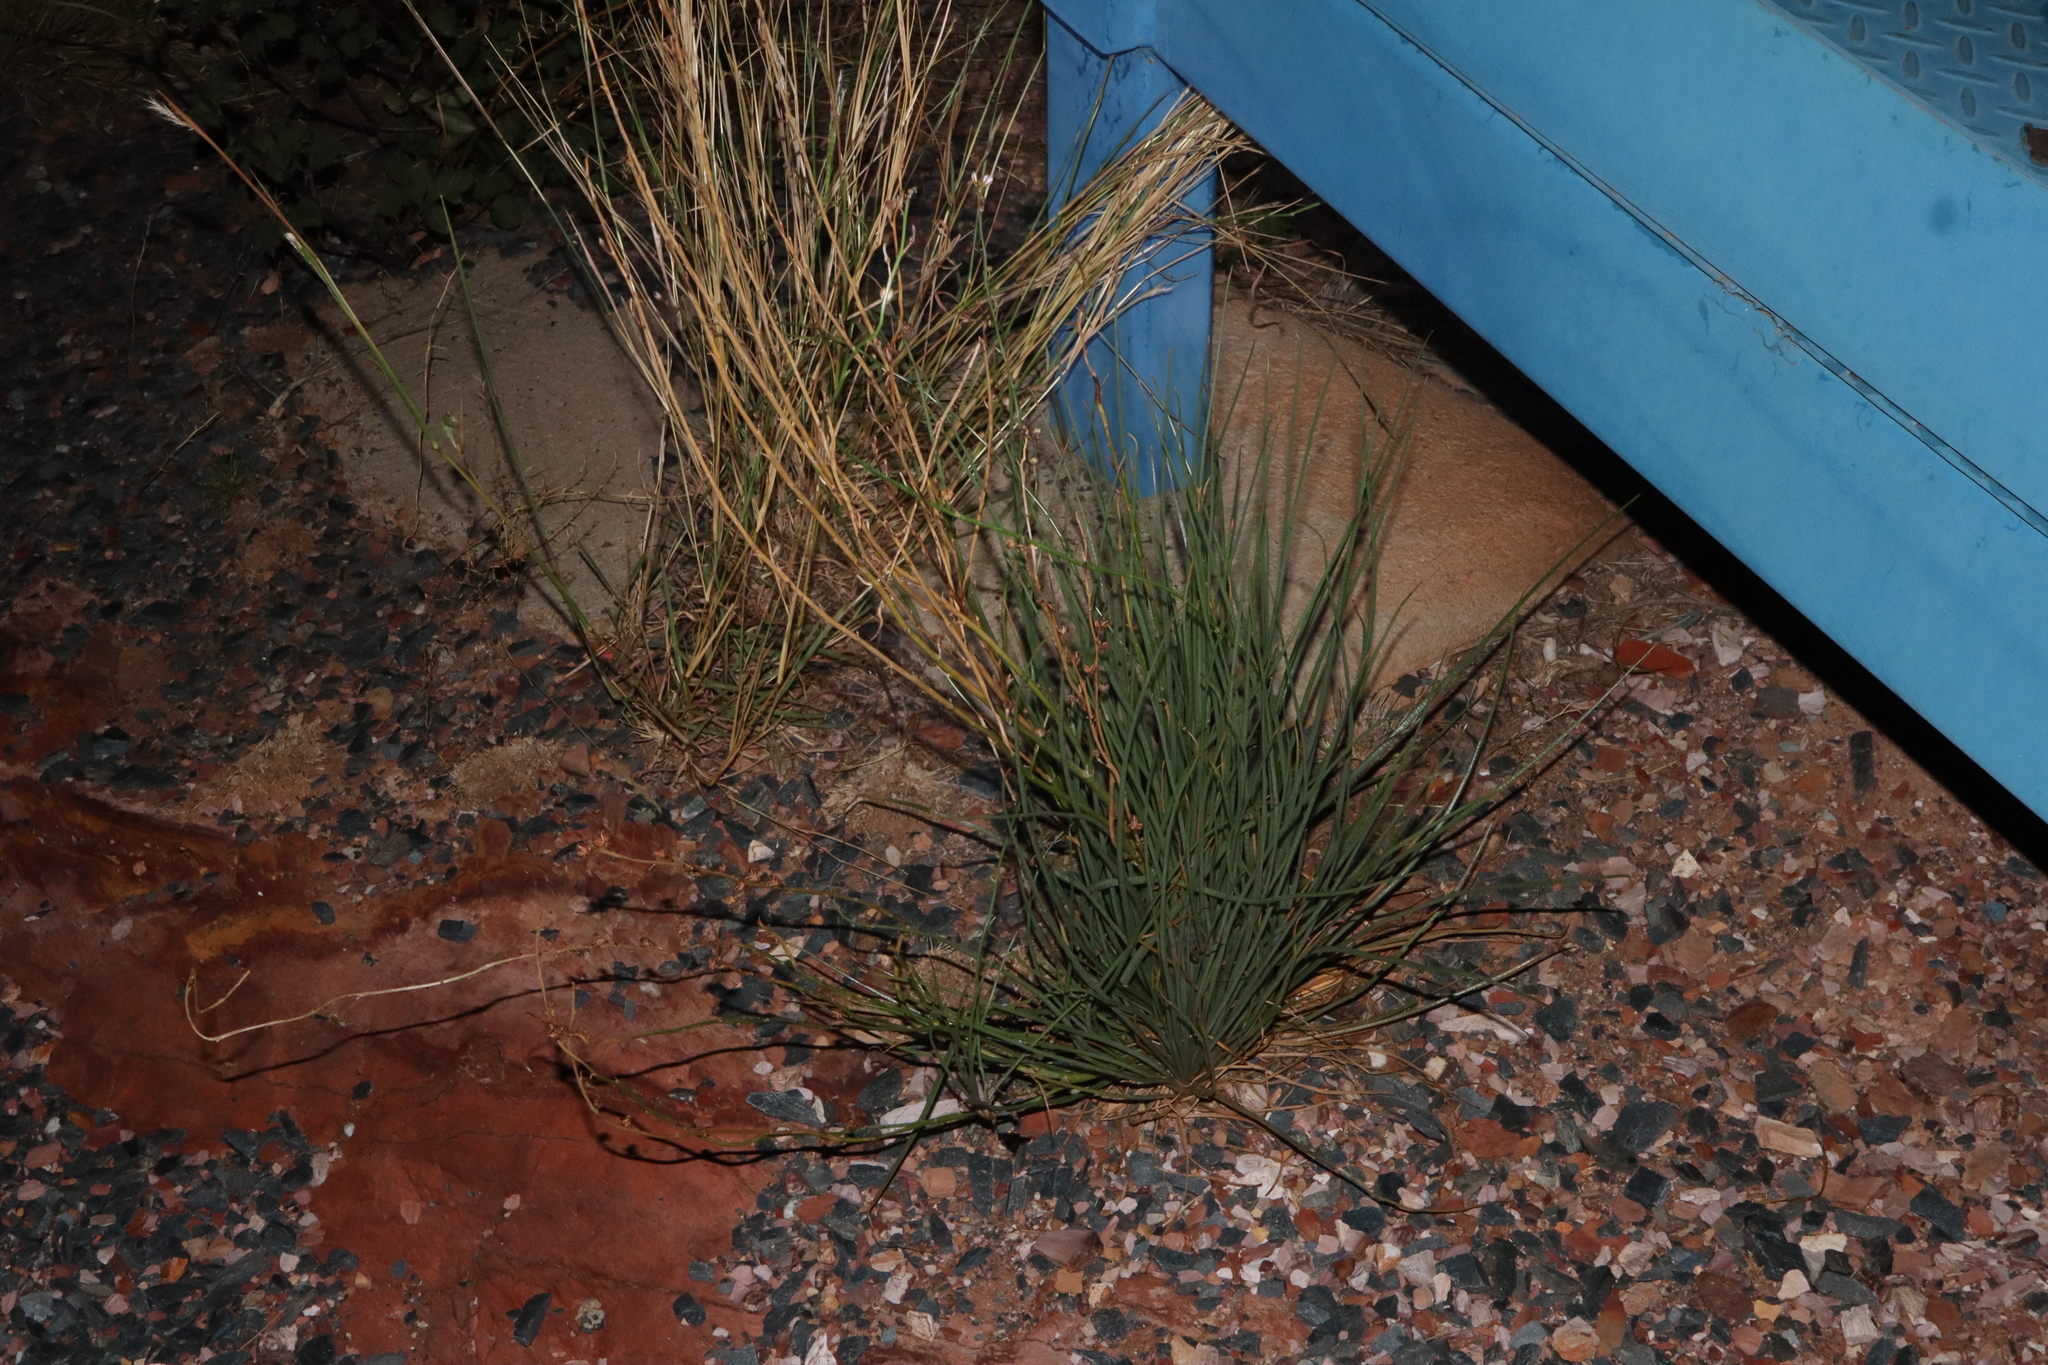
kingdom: Plantae
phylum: Tracheophyta
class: Liliopsida
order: Asparagales
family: Asphodelaceae
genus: Asphodelus
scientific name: Asphodelus fistulosus
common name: Onionweed
